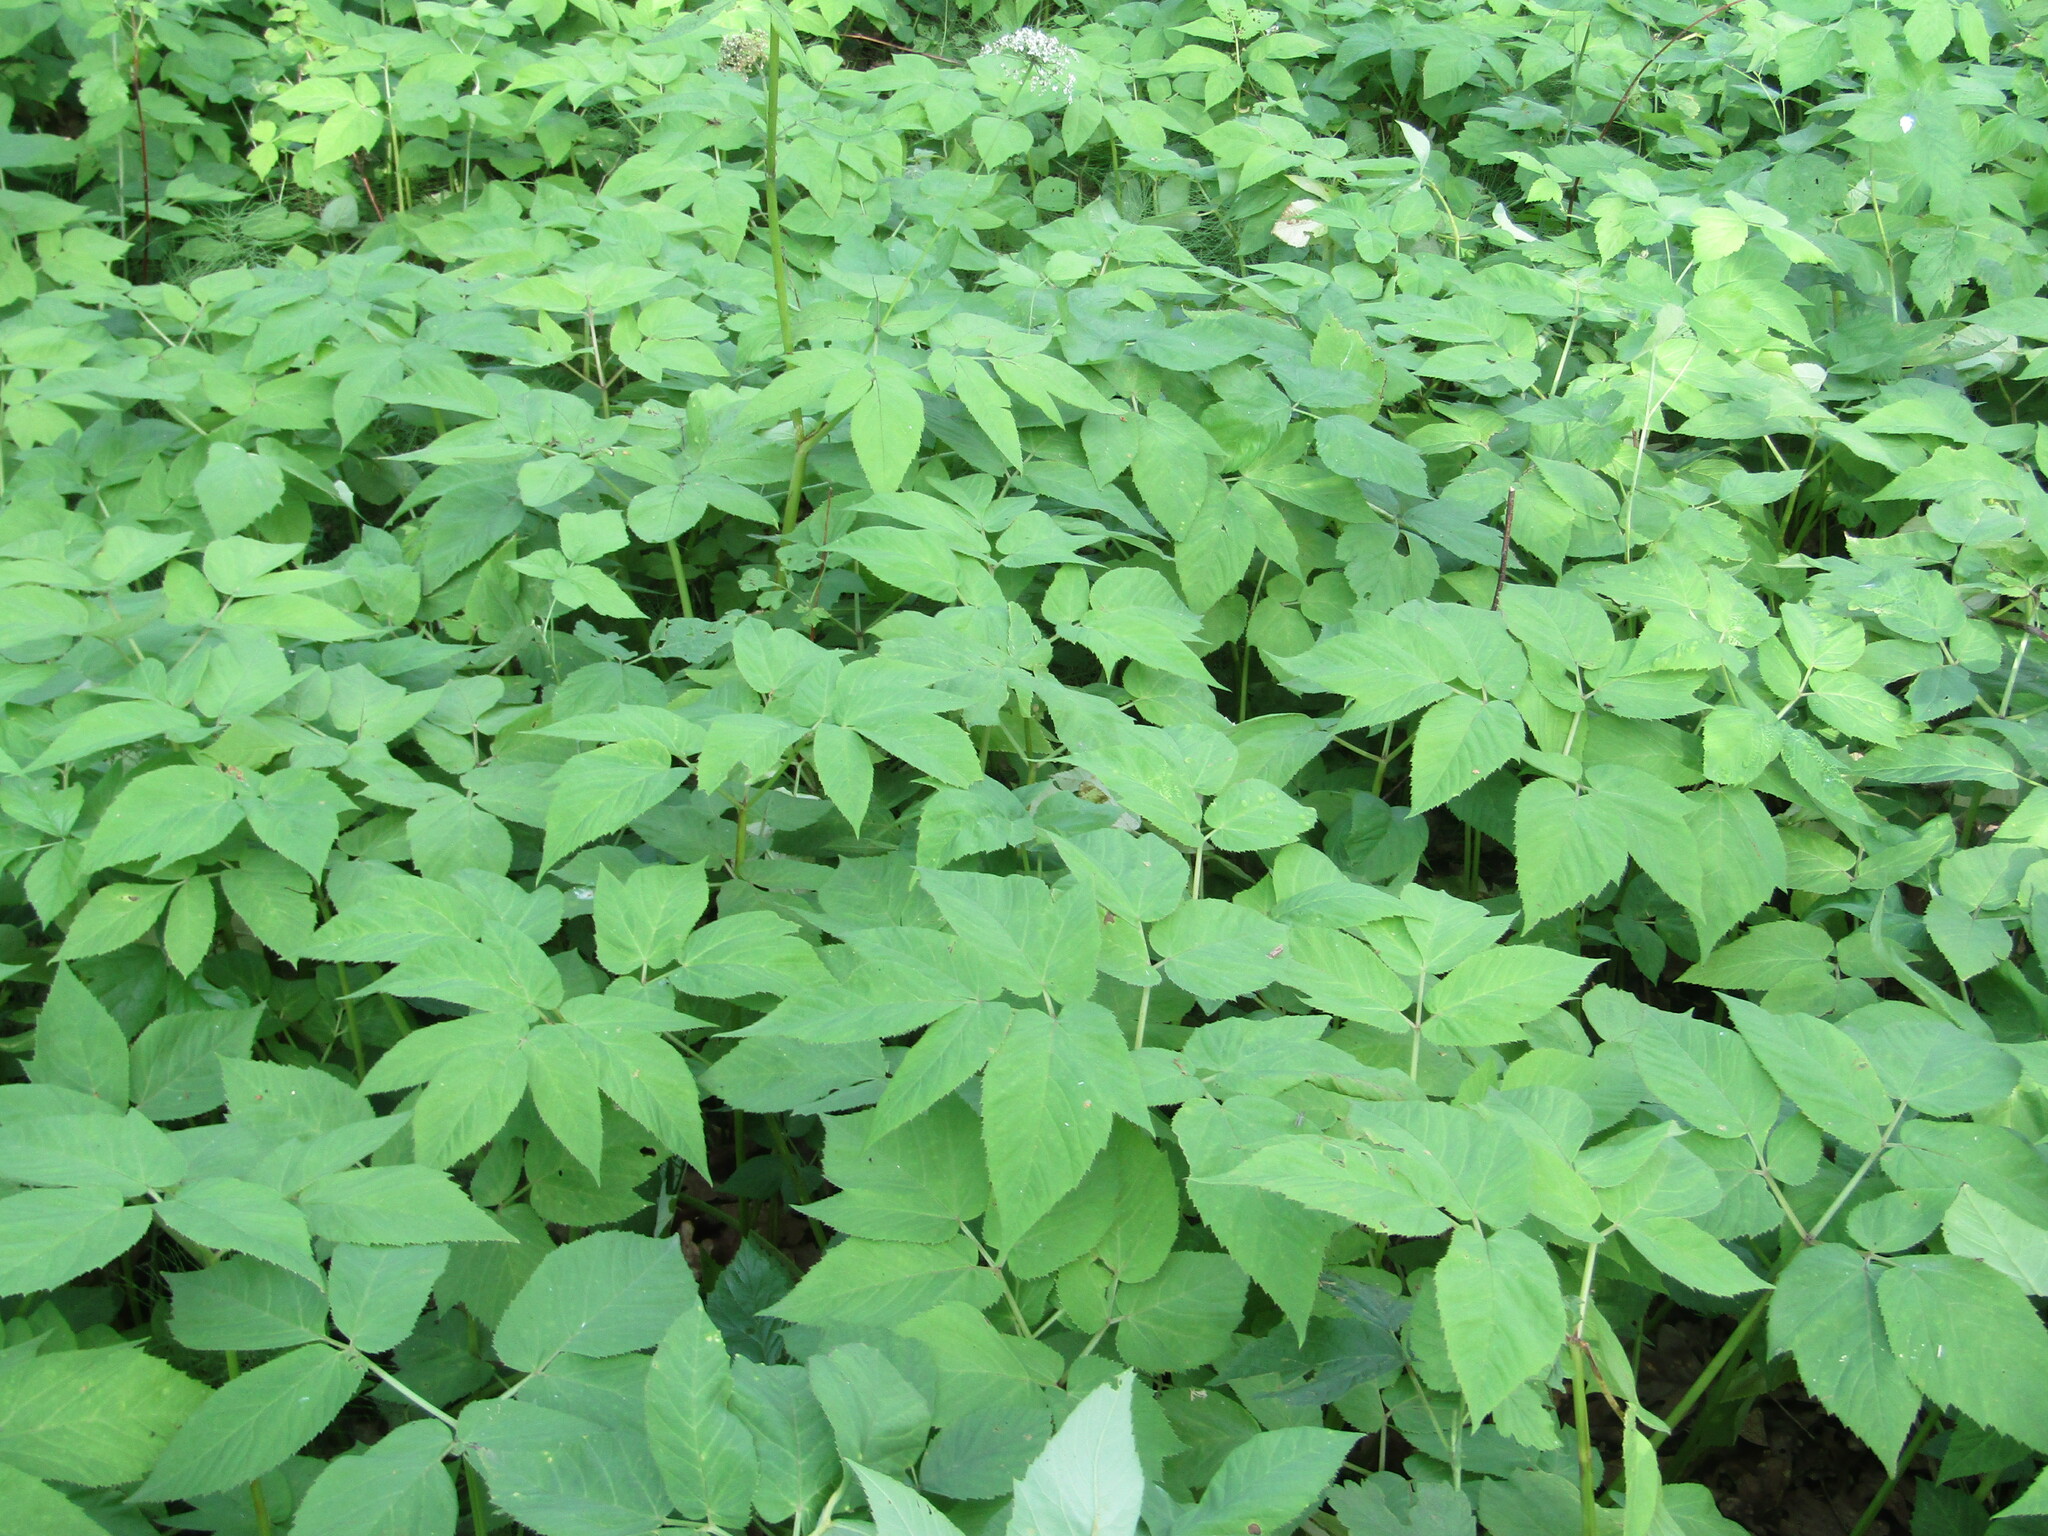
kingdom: Plantae
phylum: Tracheophyta
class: Magnoliopsida
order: Apiales
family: Apiaceae
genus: Aegopodium
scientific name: Aegopodium podagraria
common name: Ground-elder
